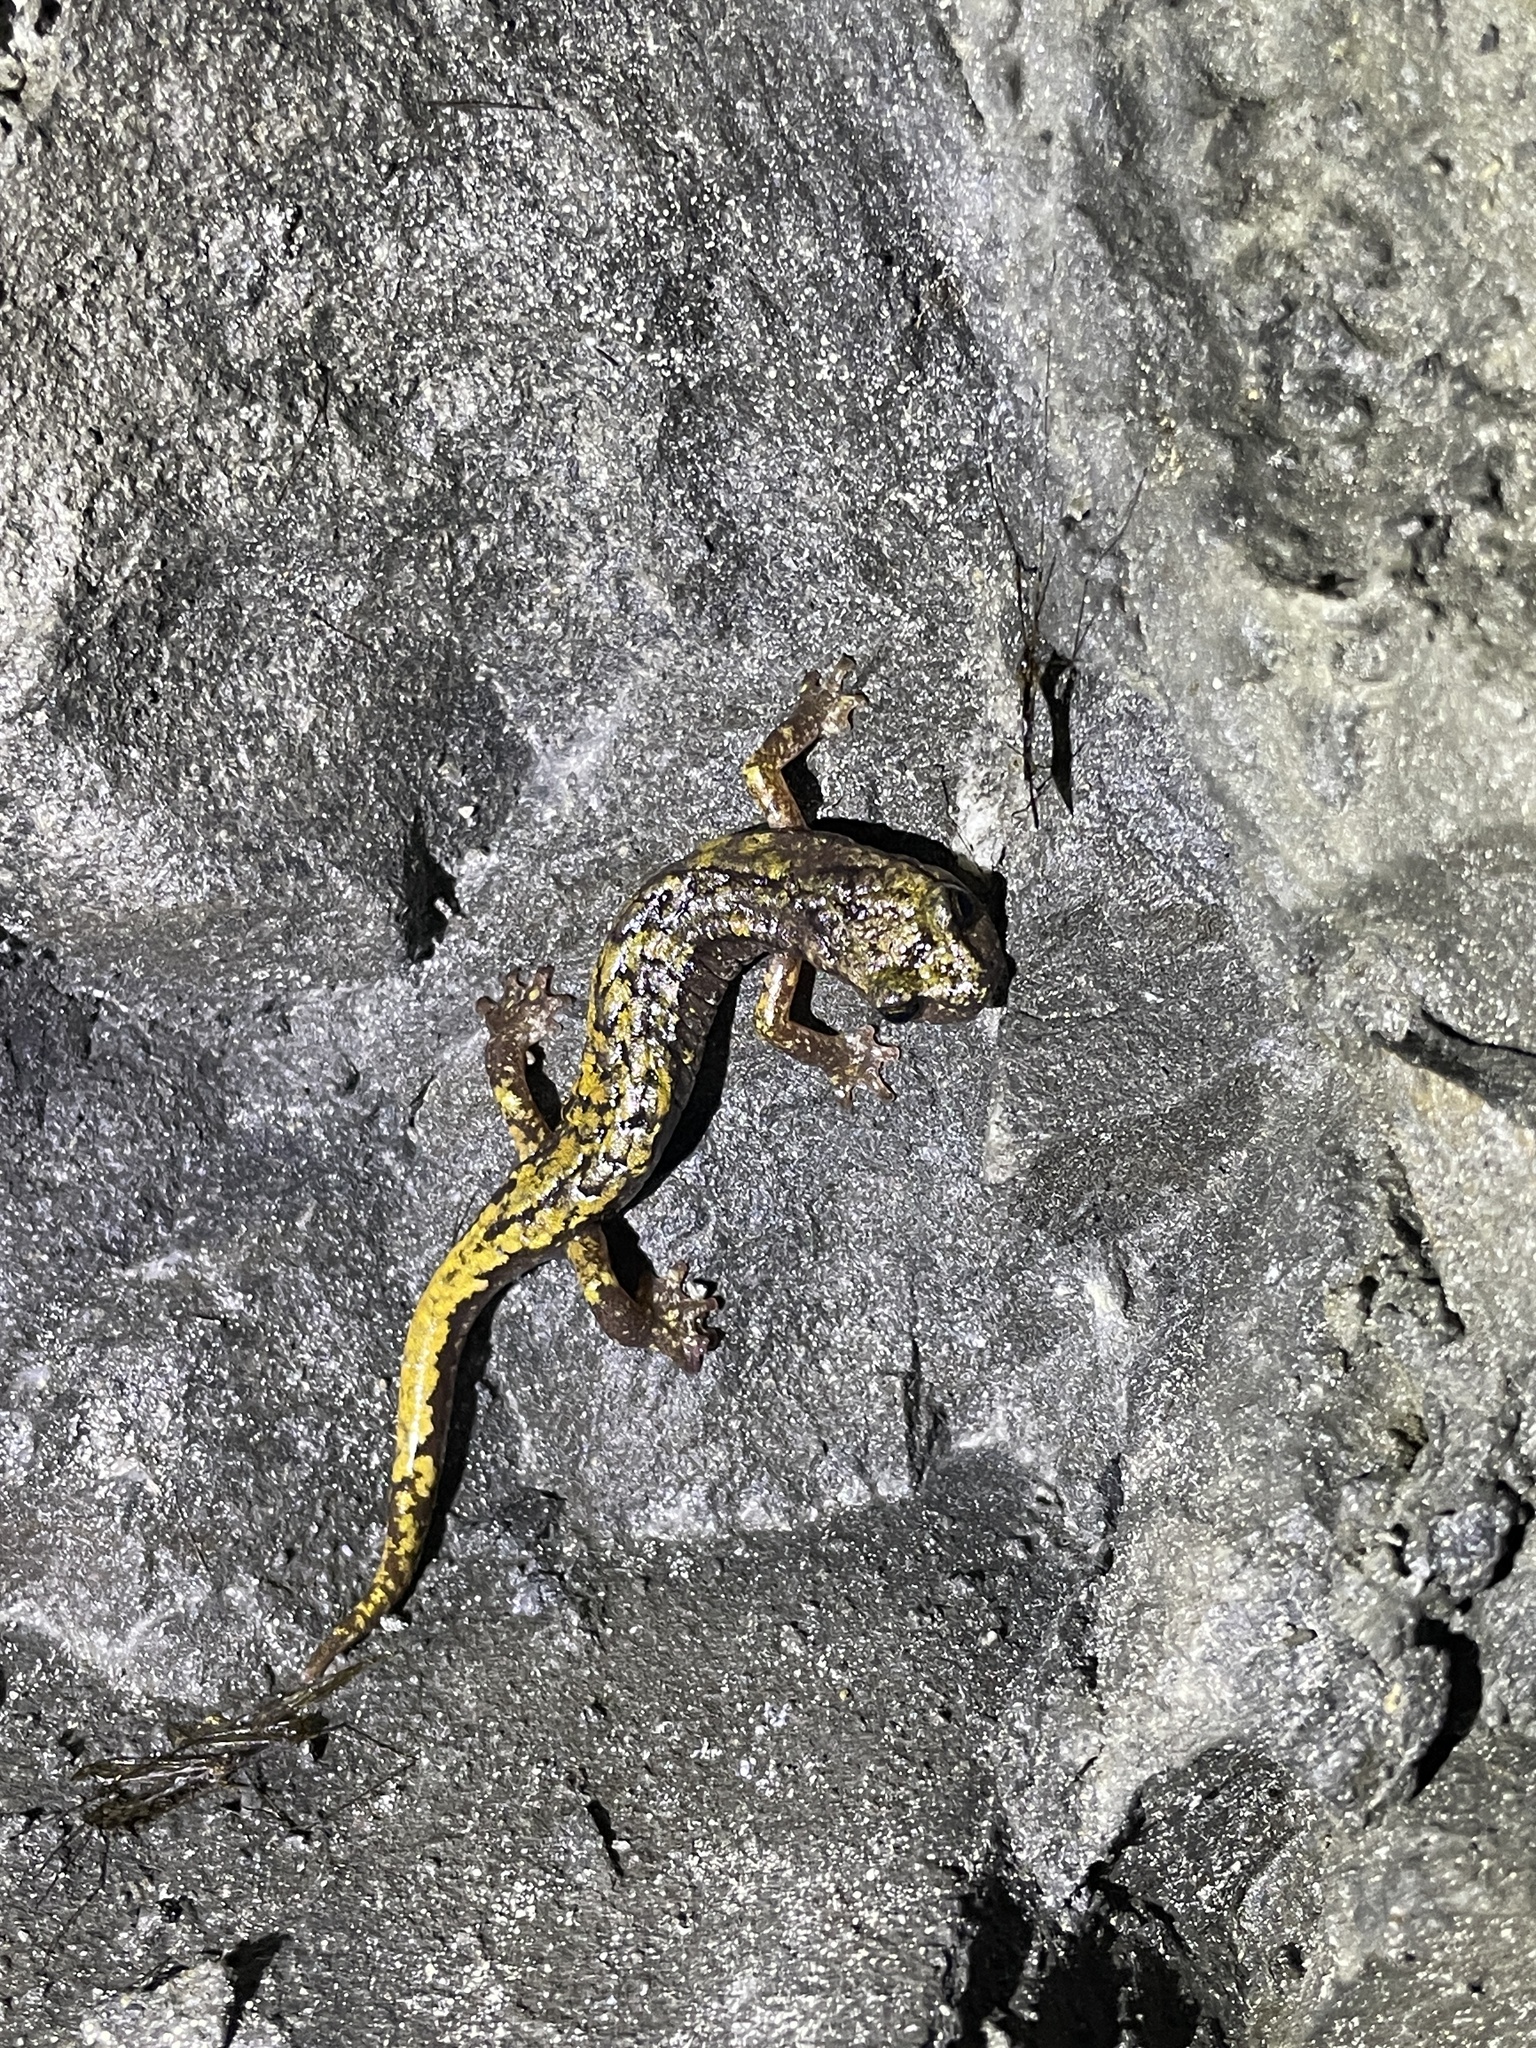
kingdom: Animalia
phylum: Chordata
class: Amphibia
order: Caudata
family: Plethodontidae
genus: Speleomantes
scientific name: Speleomantes strinatii
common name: French cave salamander
